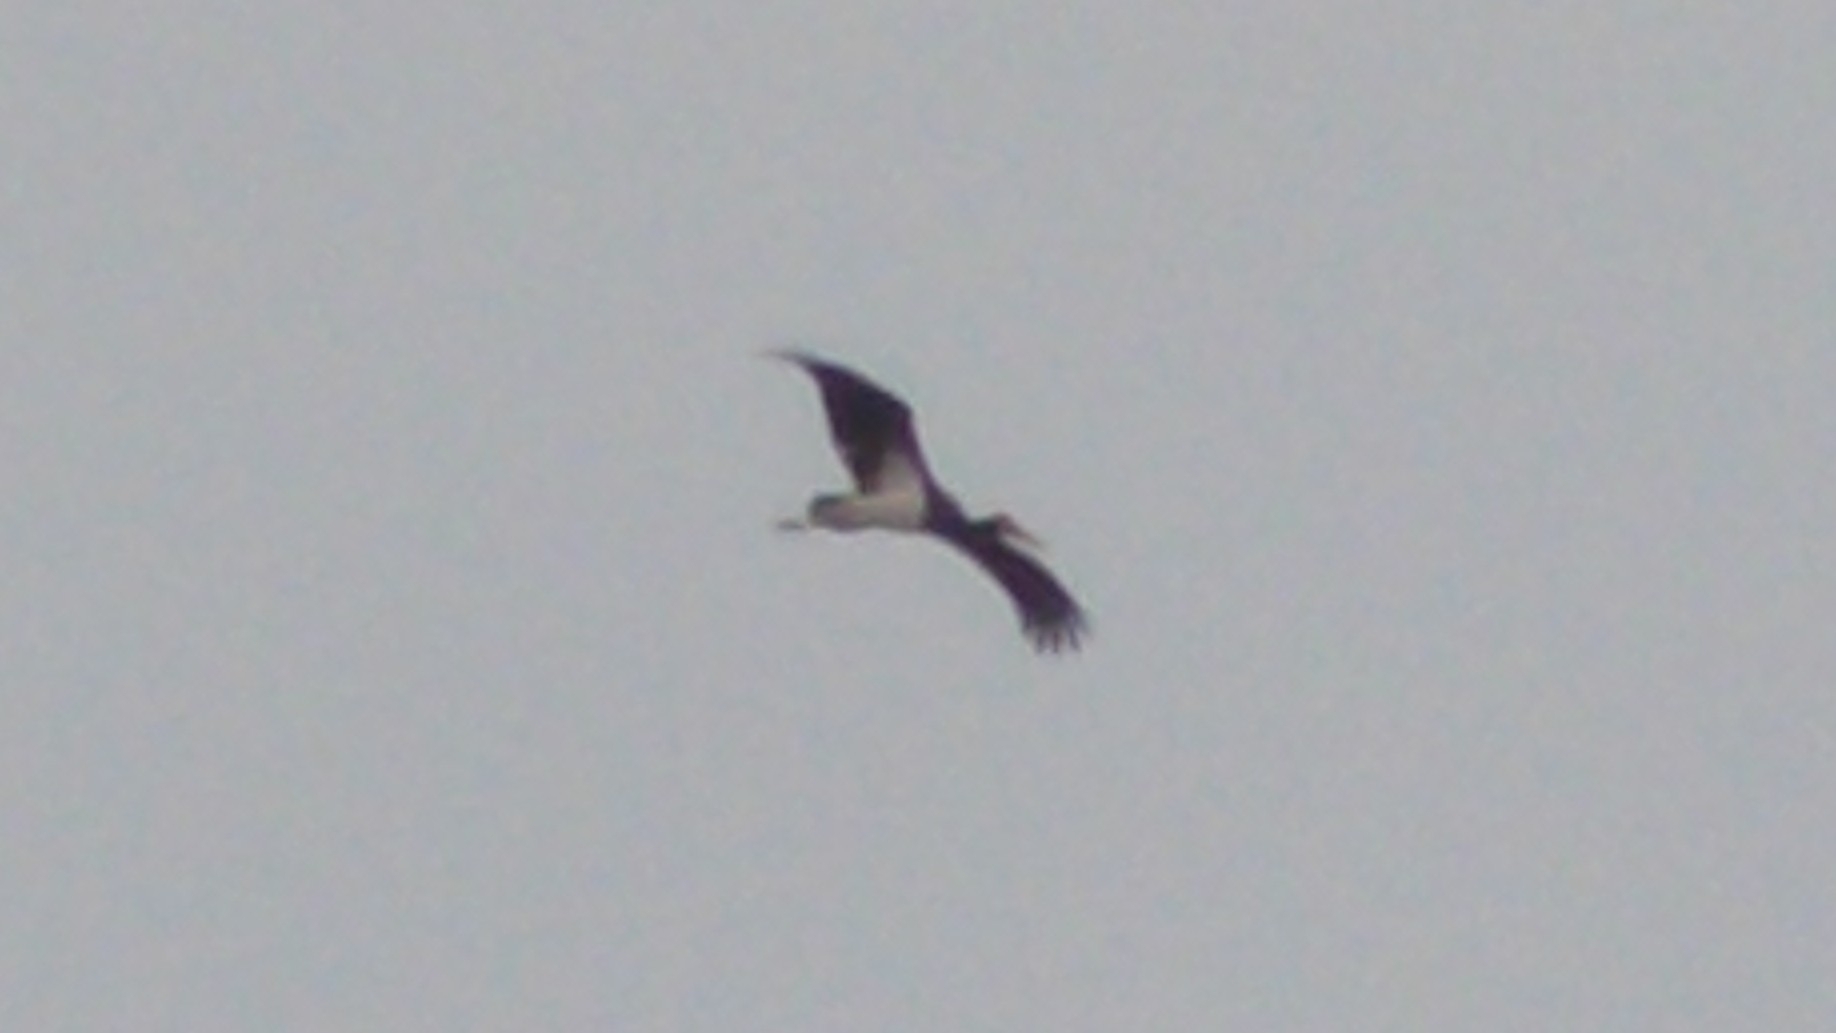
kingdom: Animalia
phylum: Chordata
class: Aves
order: Ciconiiformes
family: Ciconiidae
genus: Ciconia
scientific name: Ciconia nigra
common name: Black stork
